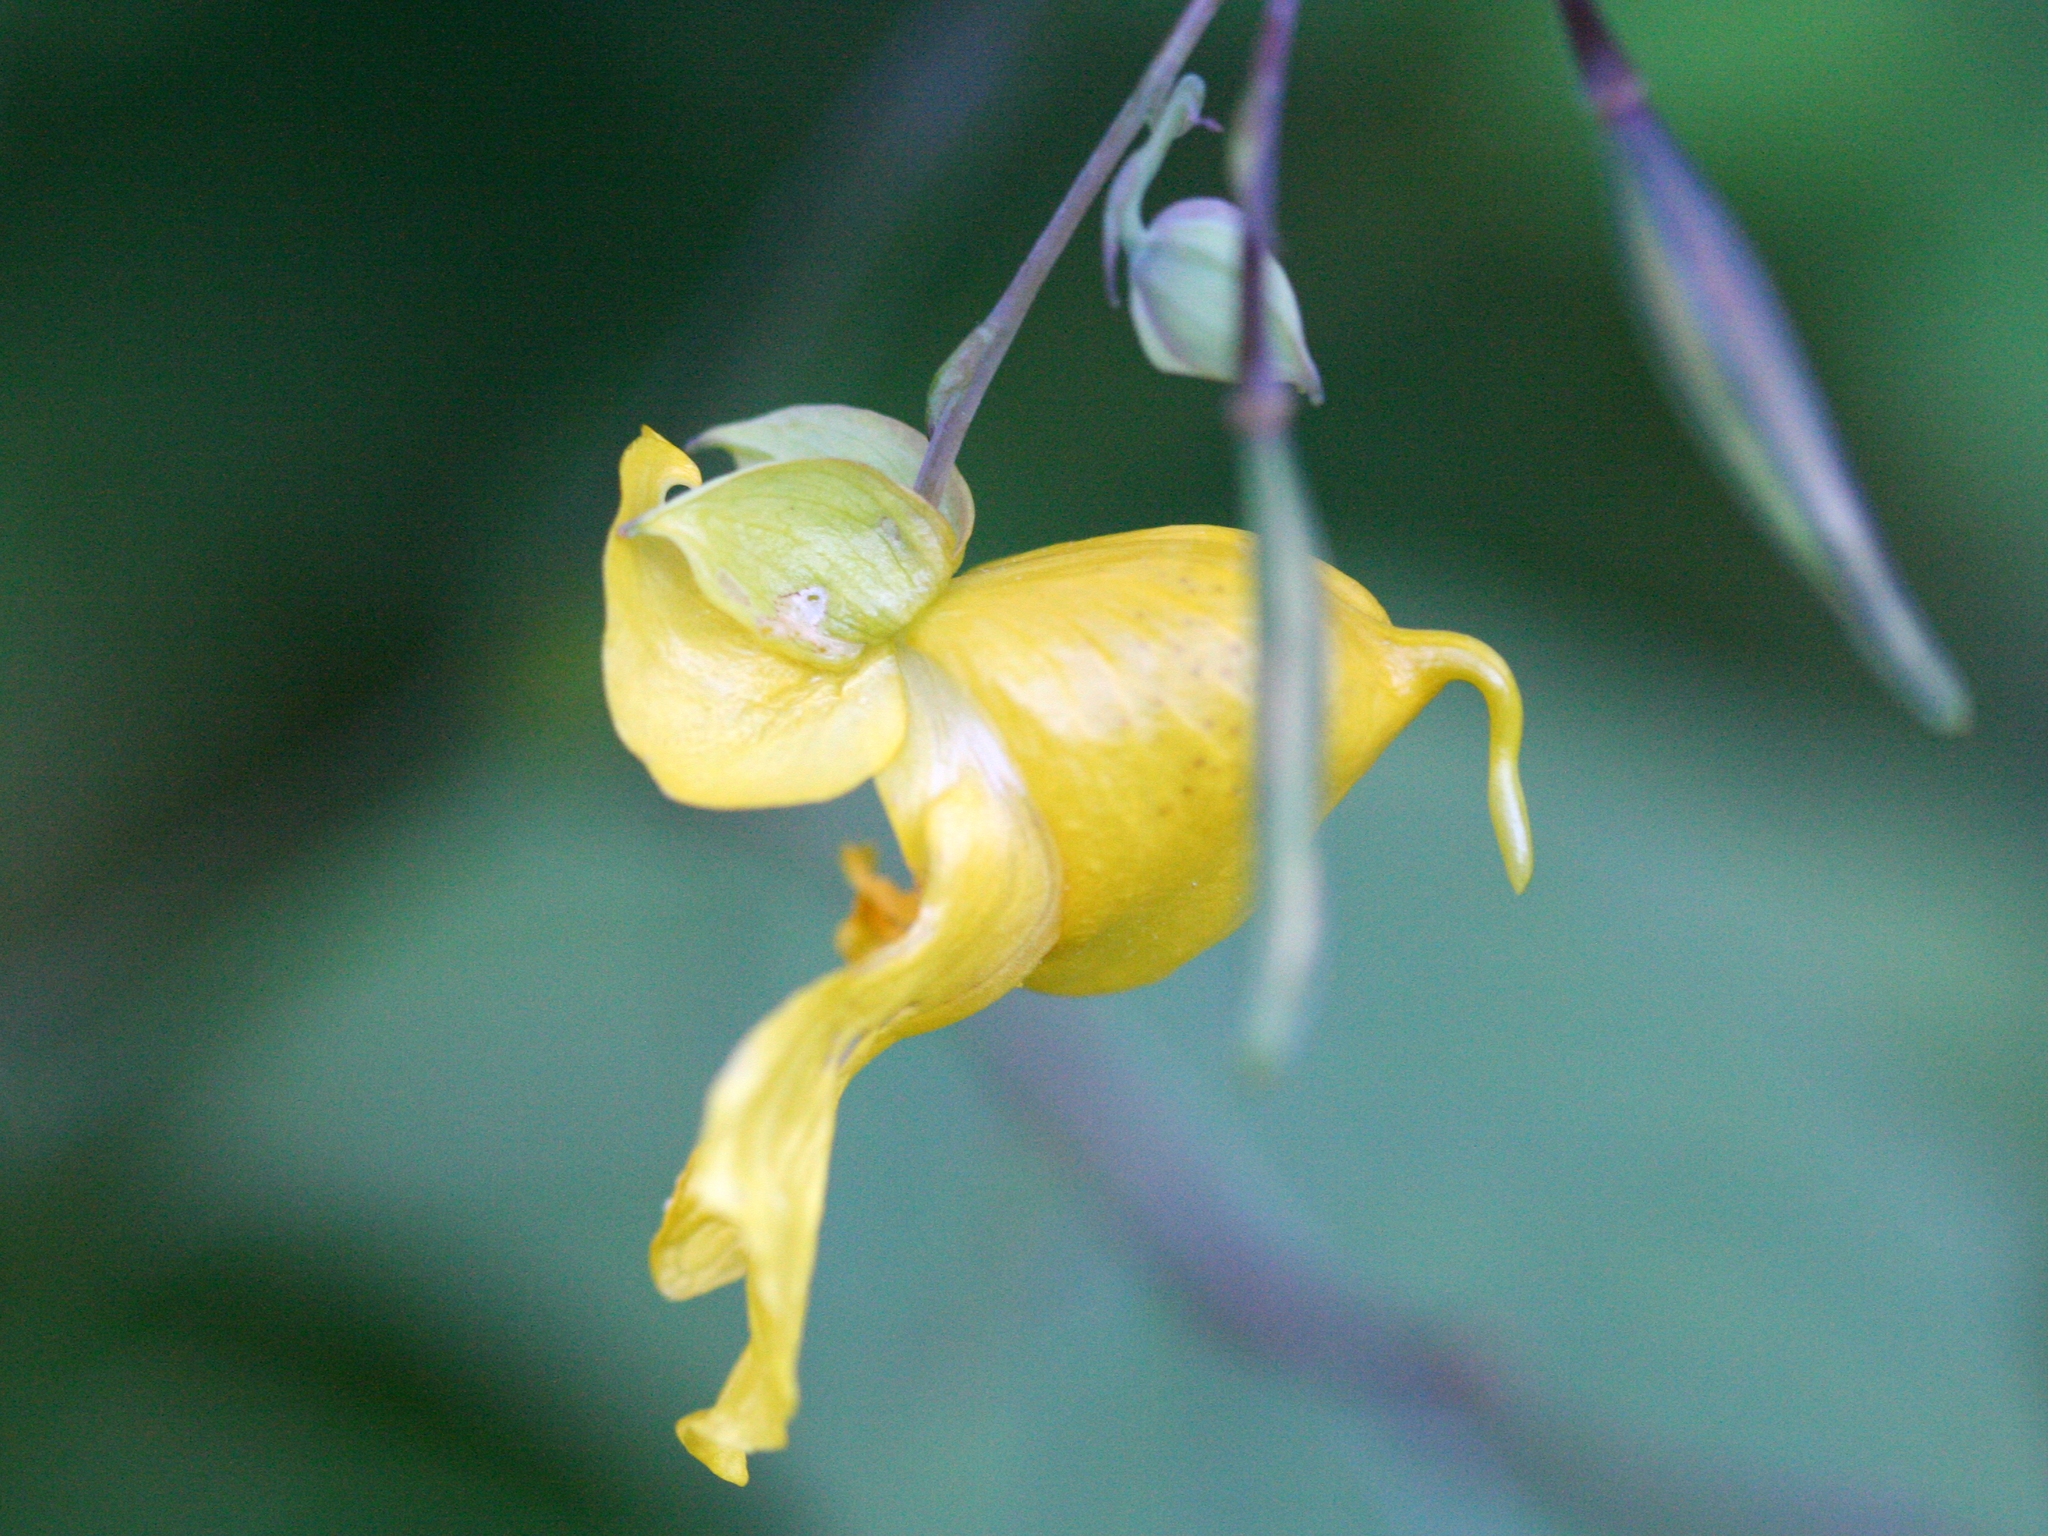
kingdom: Plantae
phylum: Tracheophyta
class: Magnoliopsida
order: Ericales
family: Balsaminaceae
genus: Impatiens
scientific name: Impatiens pallida
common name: Pale snapweed
